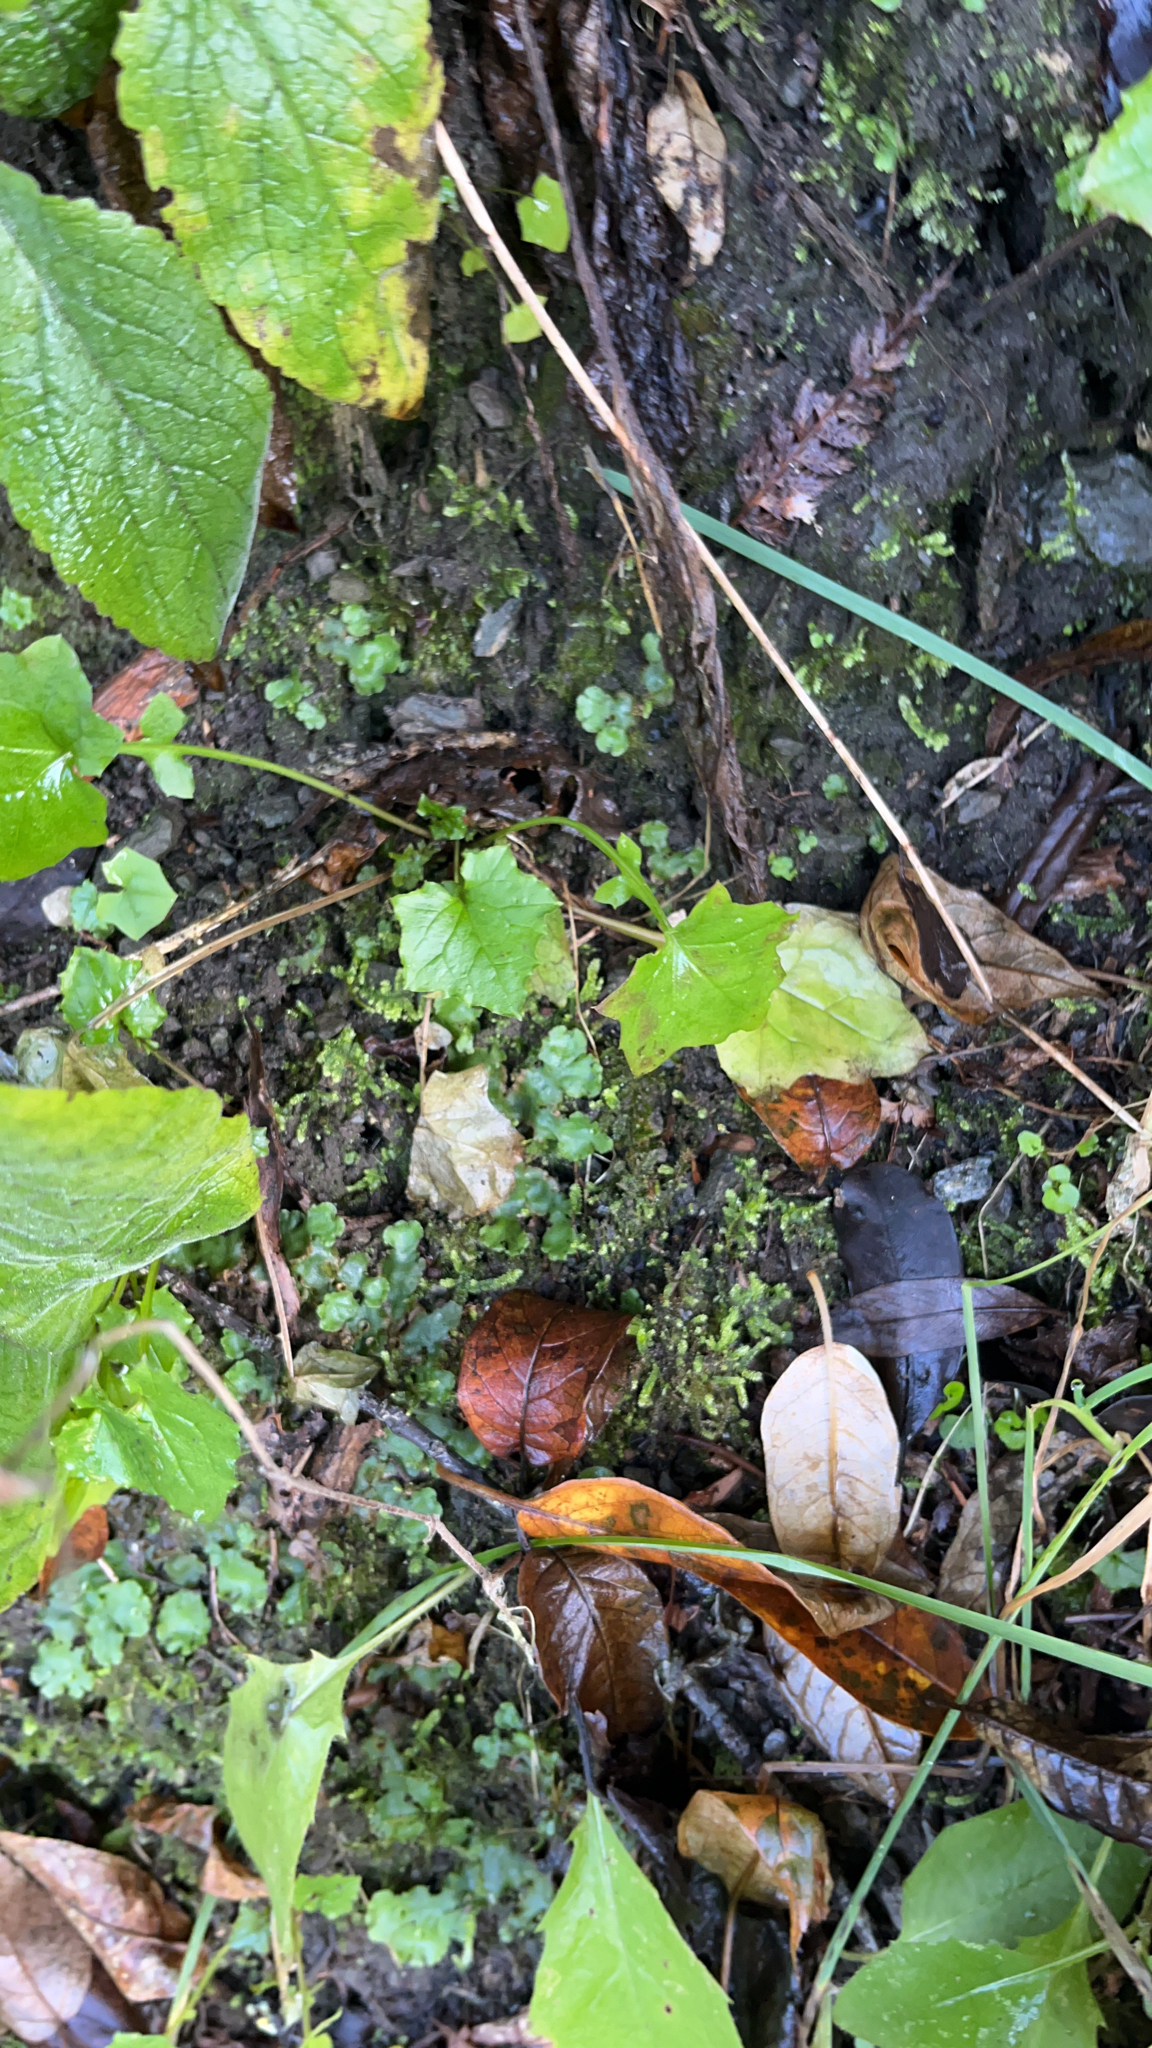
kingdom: Plantae
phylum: Tracheophyta
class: Magnoliopsida
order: Asterales
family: Asteraceae
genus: Mycelis
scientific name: Mycelis muralis
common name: Wall lettuce
